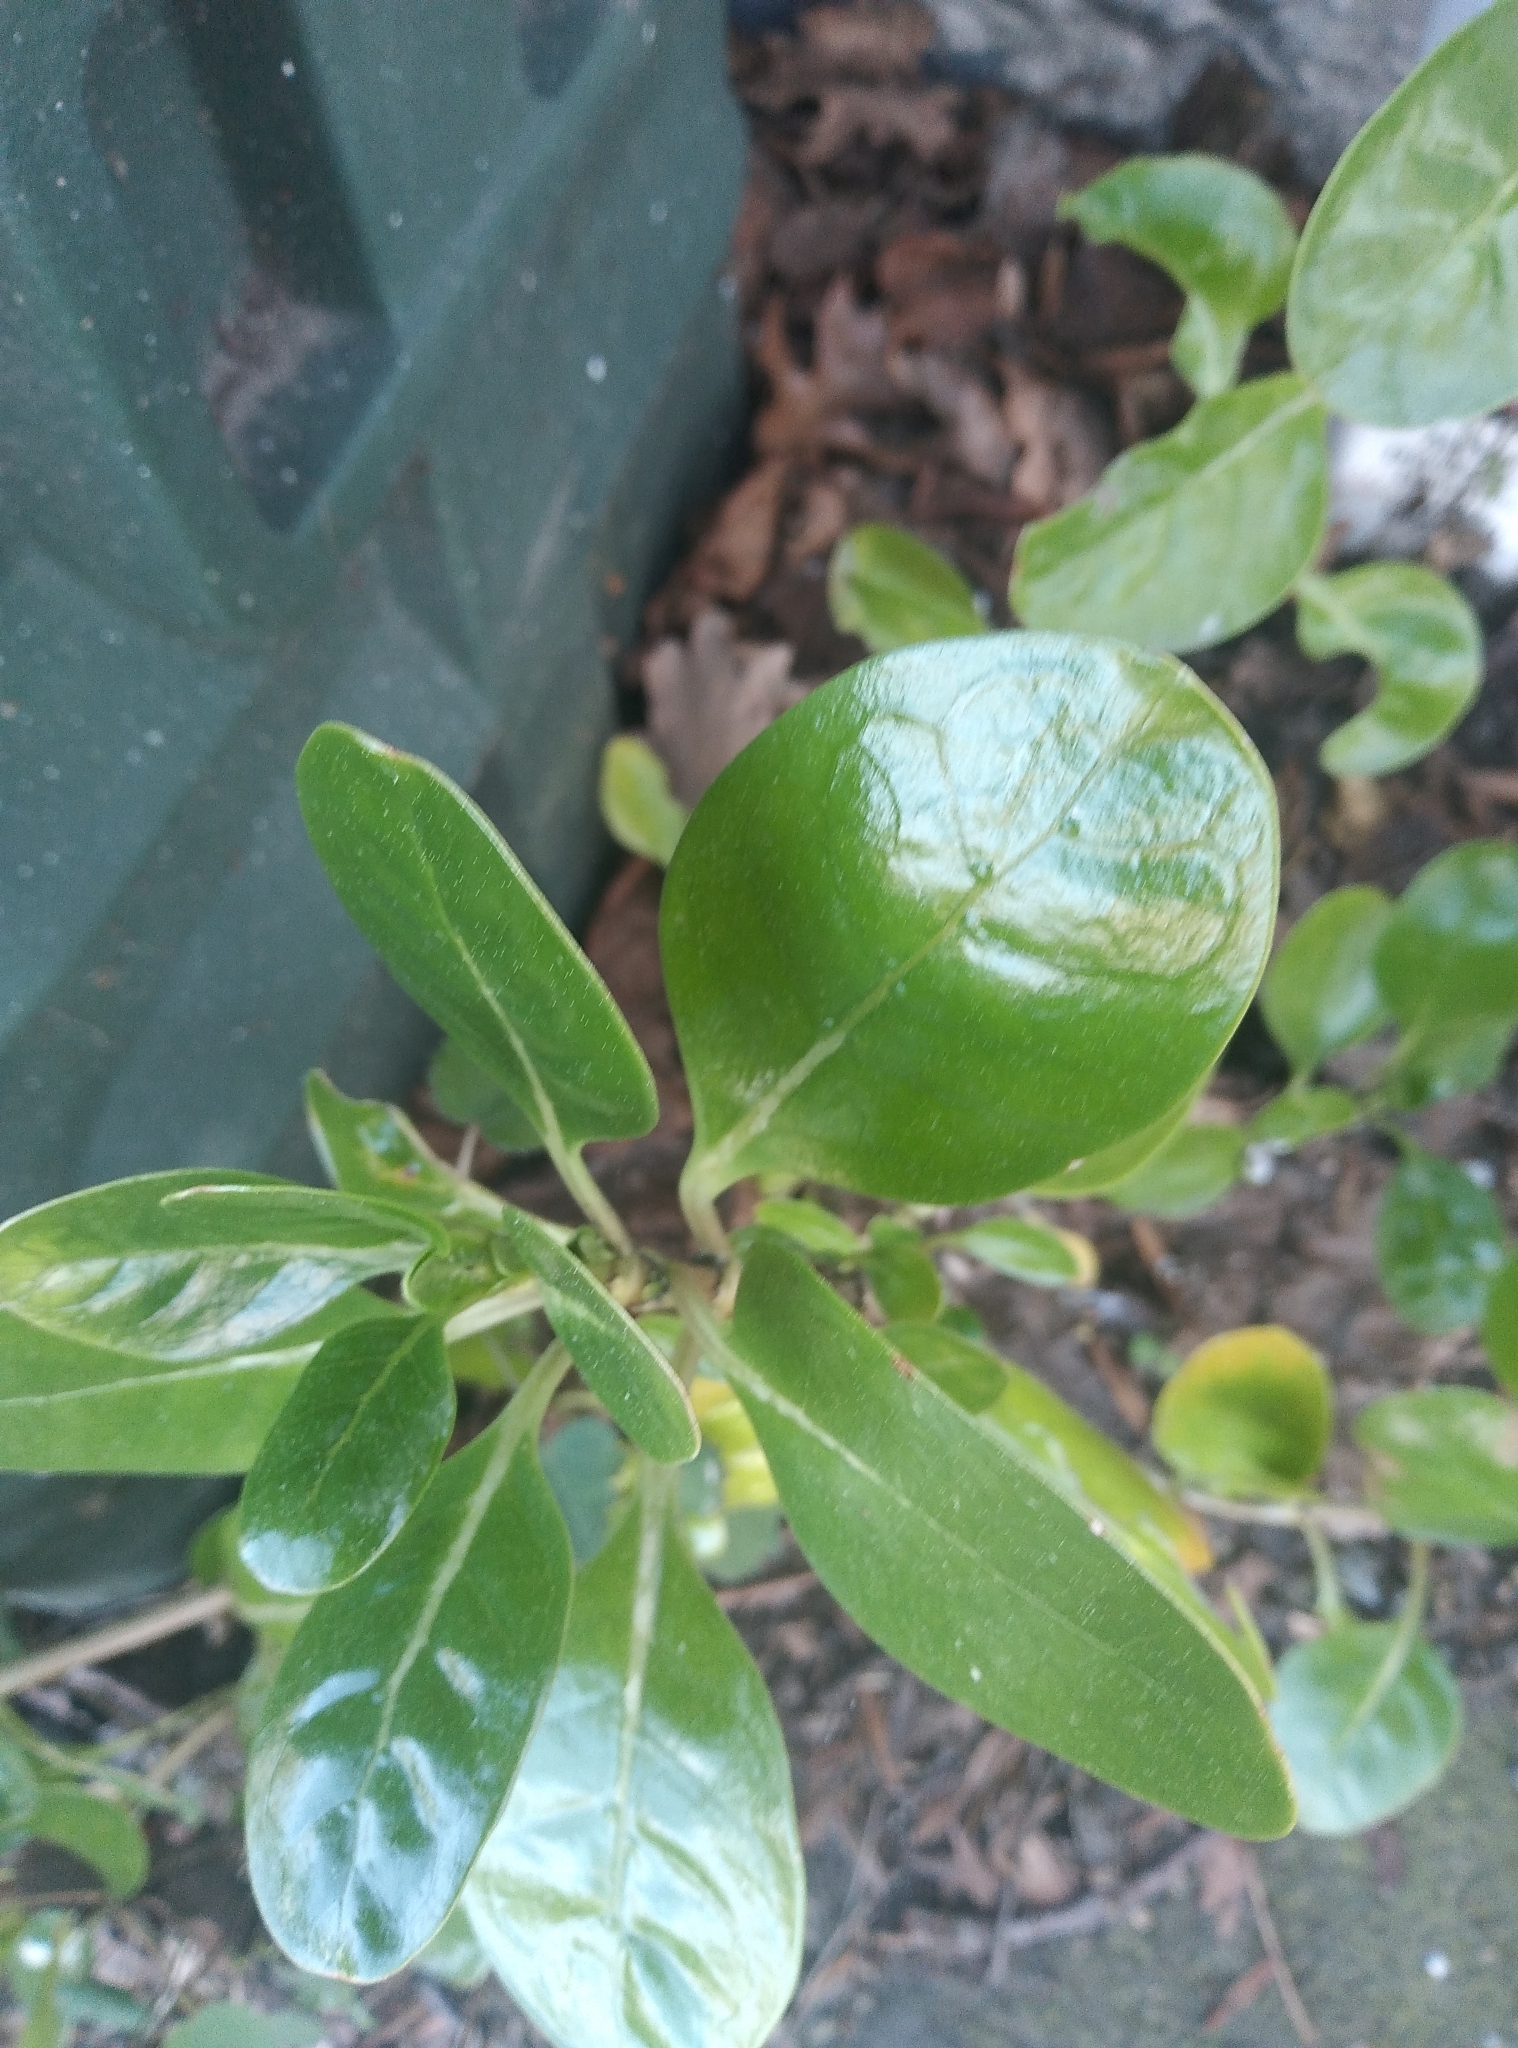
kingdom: Plantae
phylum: Tracheophyta
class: Magnoliopsida
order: Gentianales
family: Rubiaceae
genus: Coprosma
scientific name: Coprosma repens
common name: Tree bedstraw
